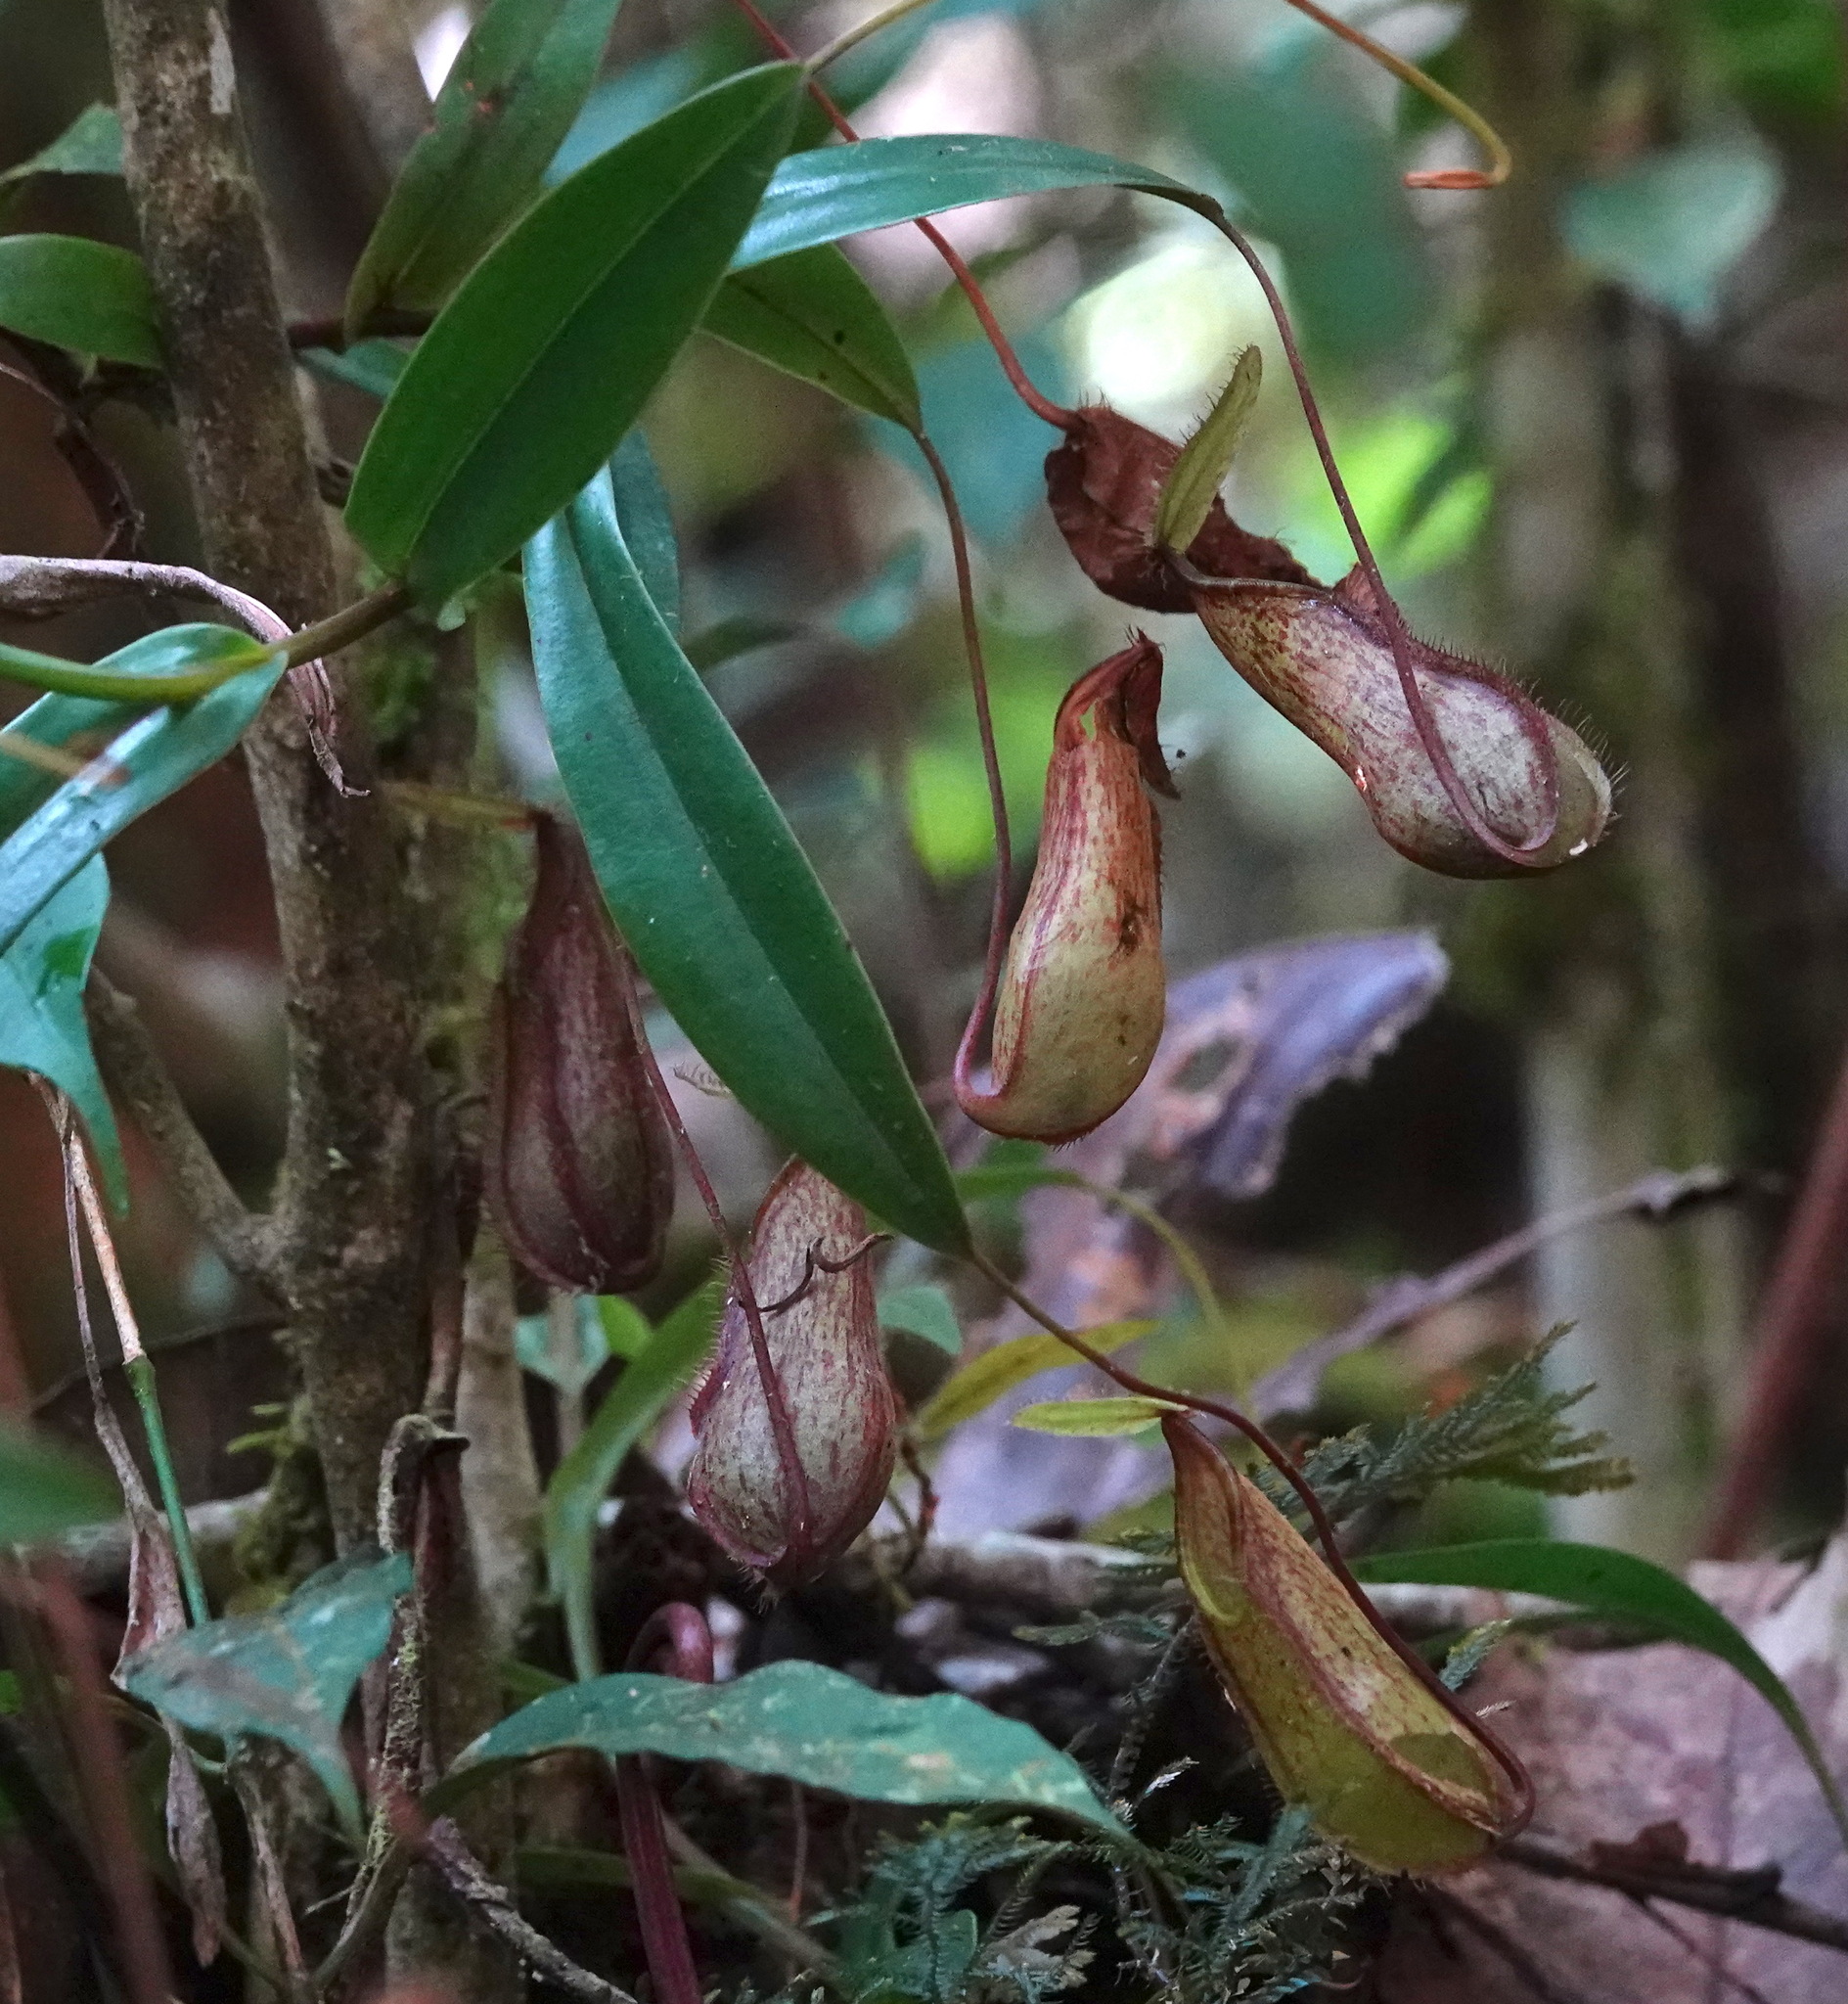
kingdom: Plantae
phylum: Tracheophyta
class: Magnoliopsida
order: Caryophyllales
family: Nepenthaceae
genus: Nepenthes
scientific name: Nepenthes tentaculata
